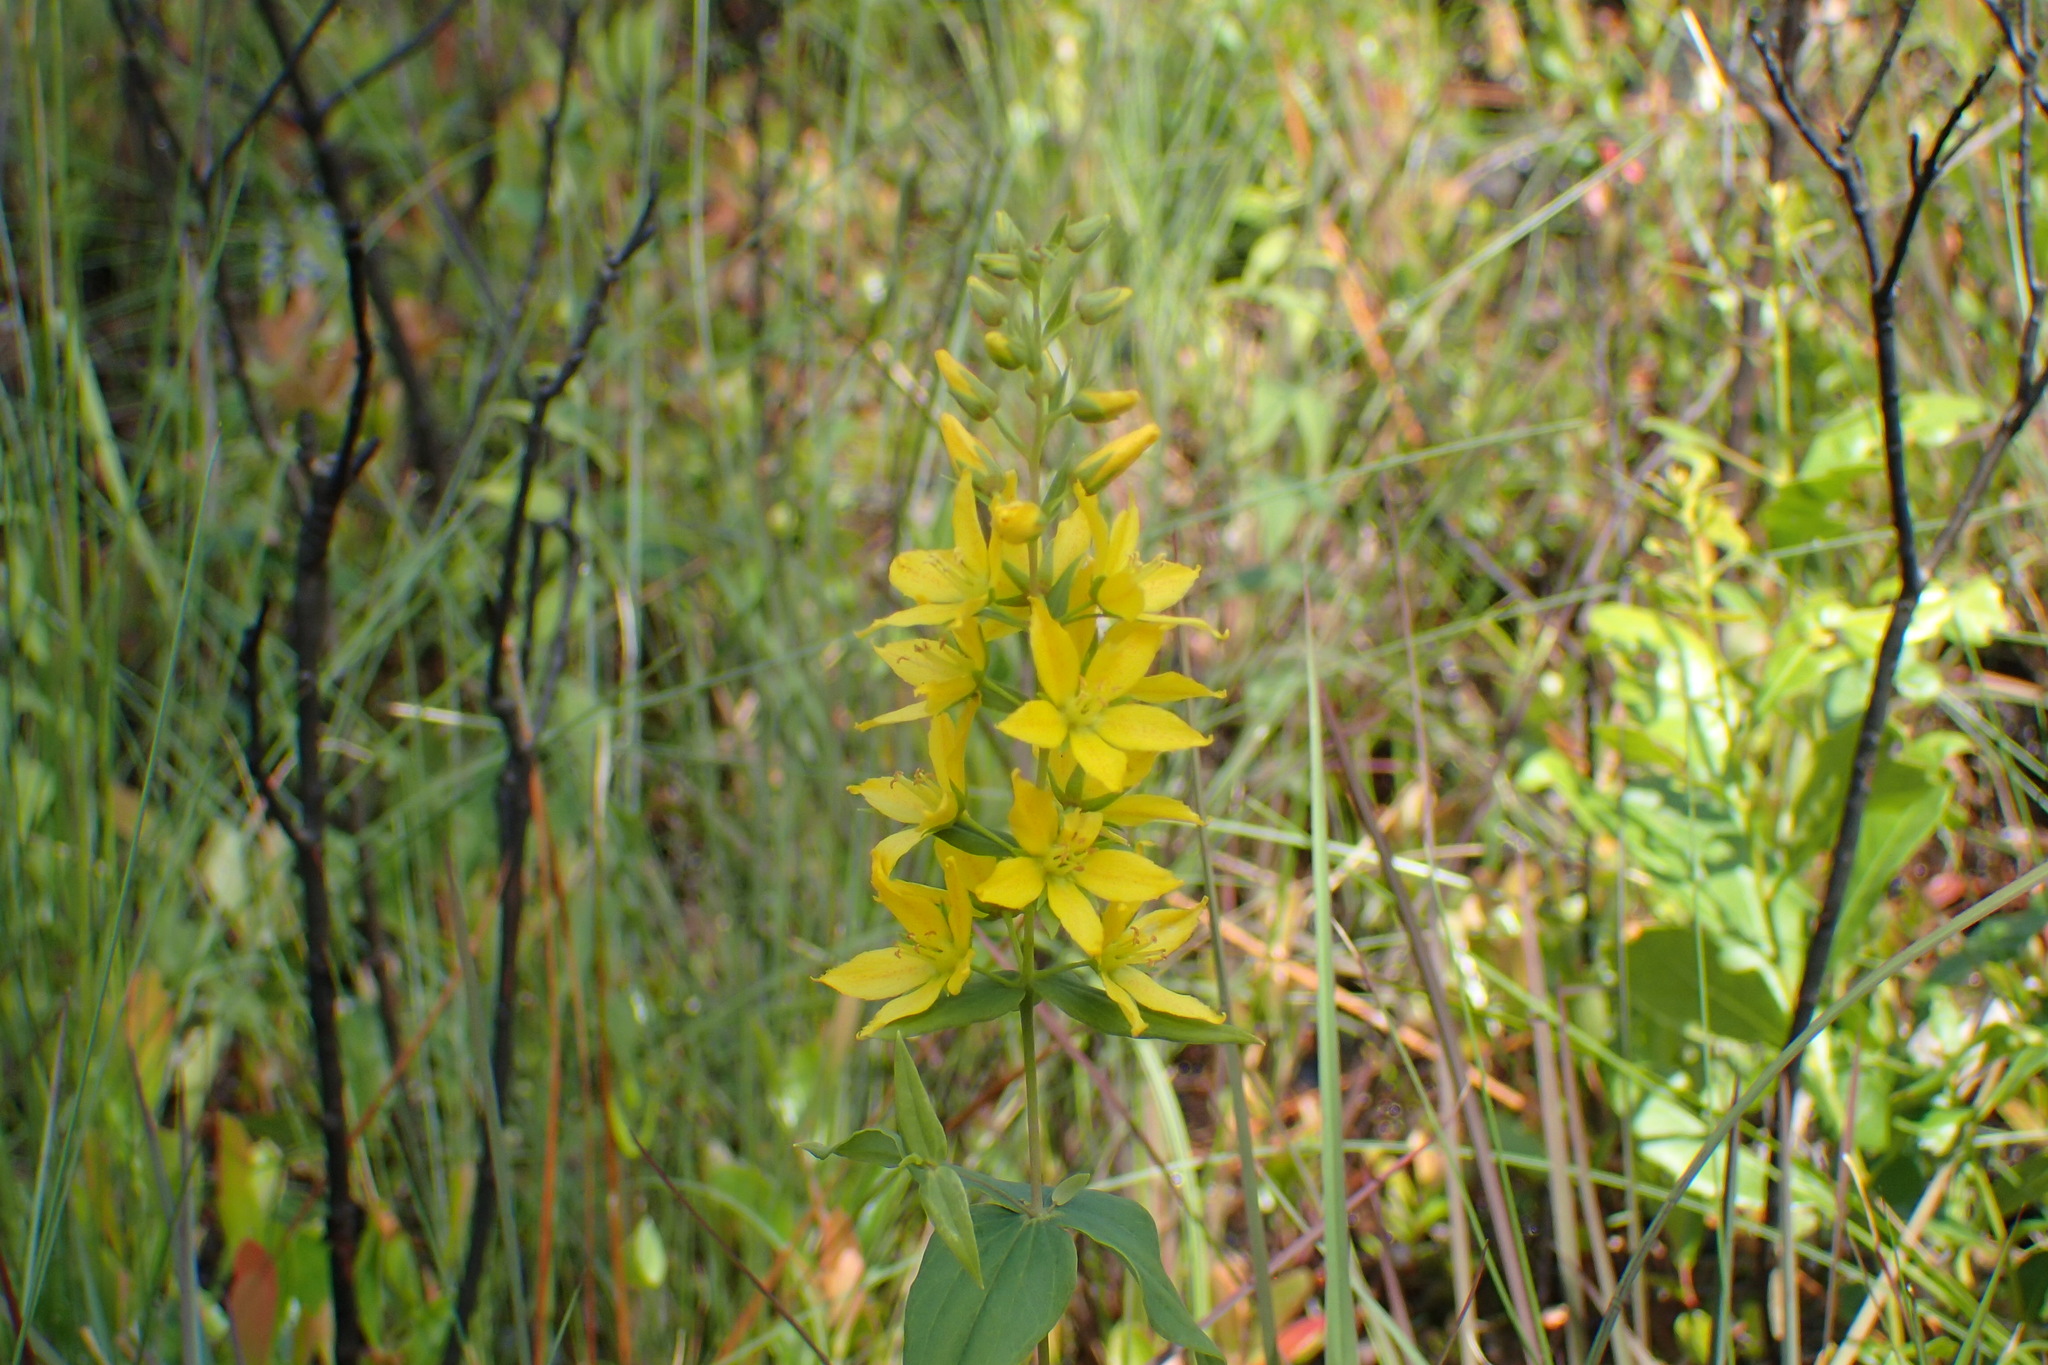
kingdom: Plantae
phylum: Tracheophyta
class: Magnoliopsida
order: Ericales
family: Primulaceae
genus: Lysimachia
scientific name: Lysimachia asperulifolia
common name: Rough-leaf loosestrife
